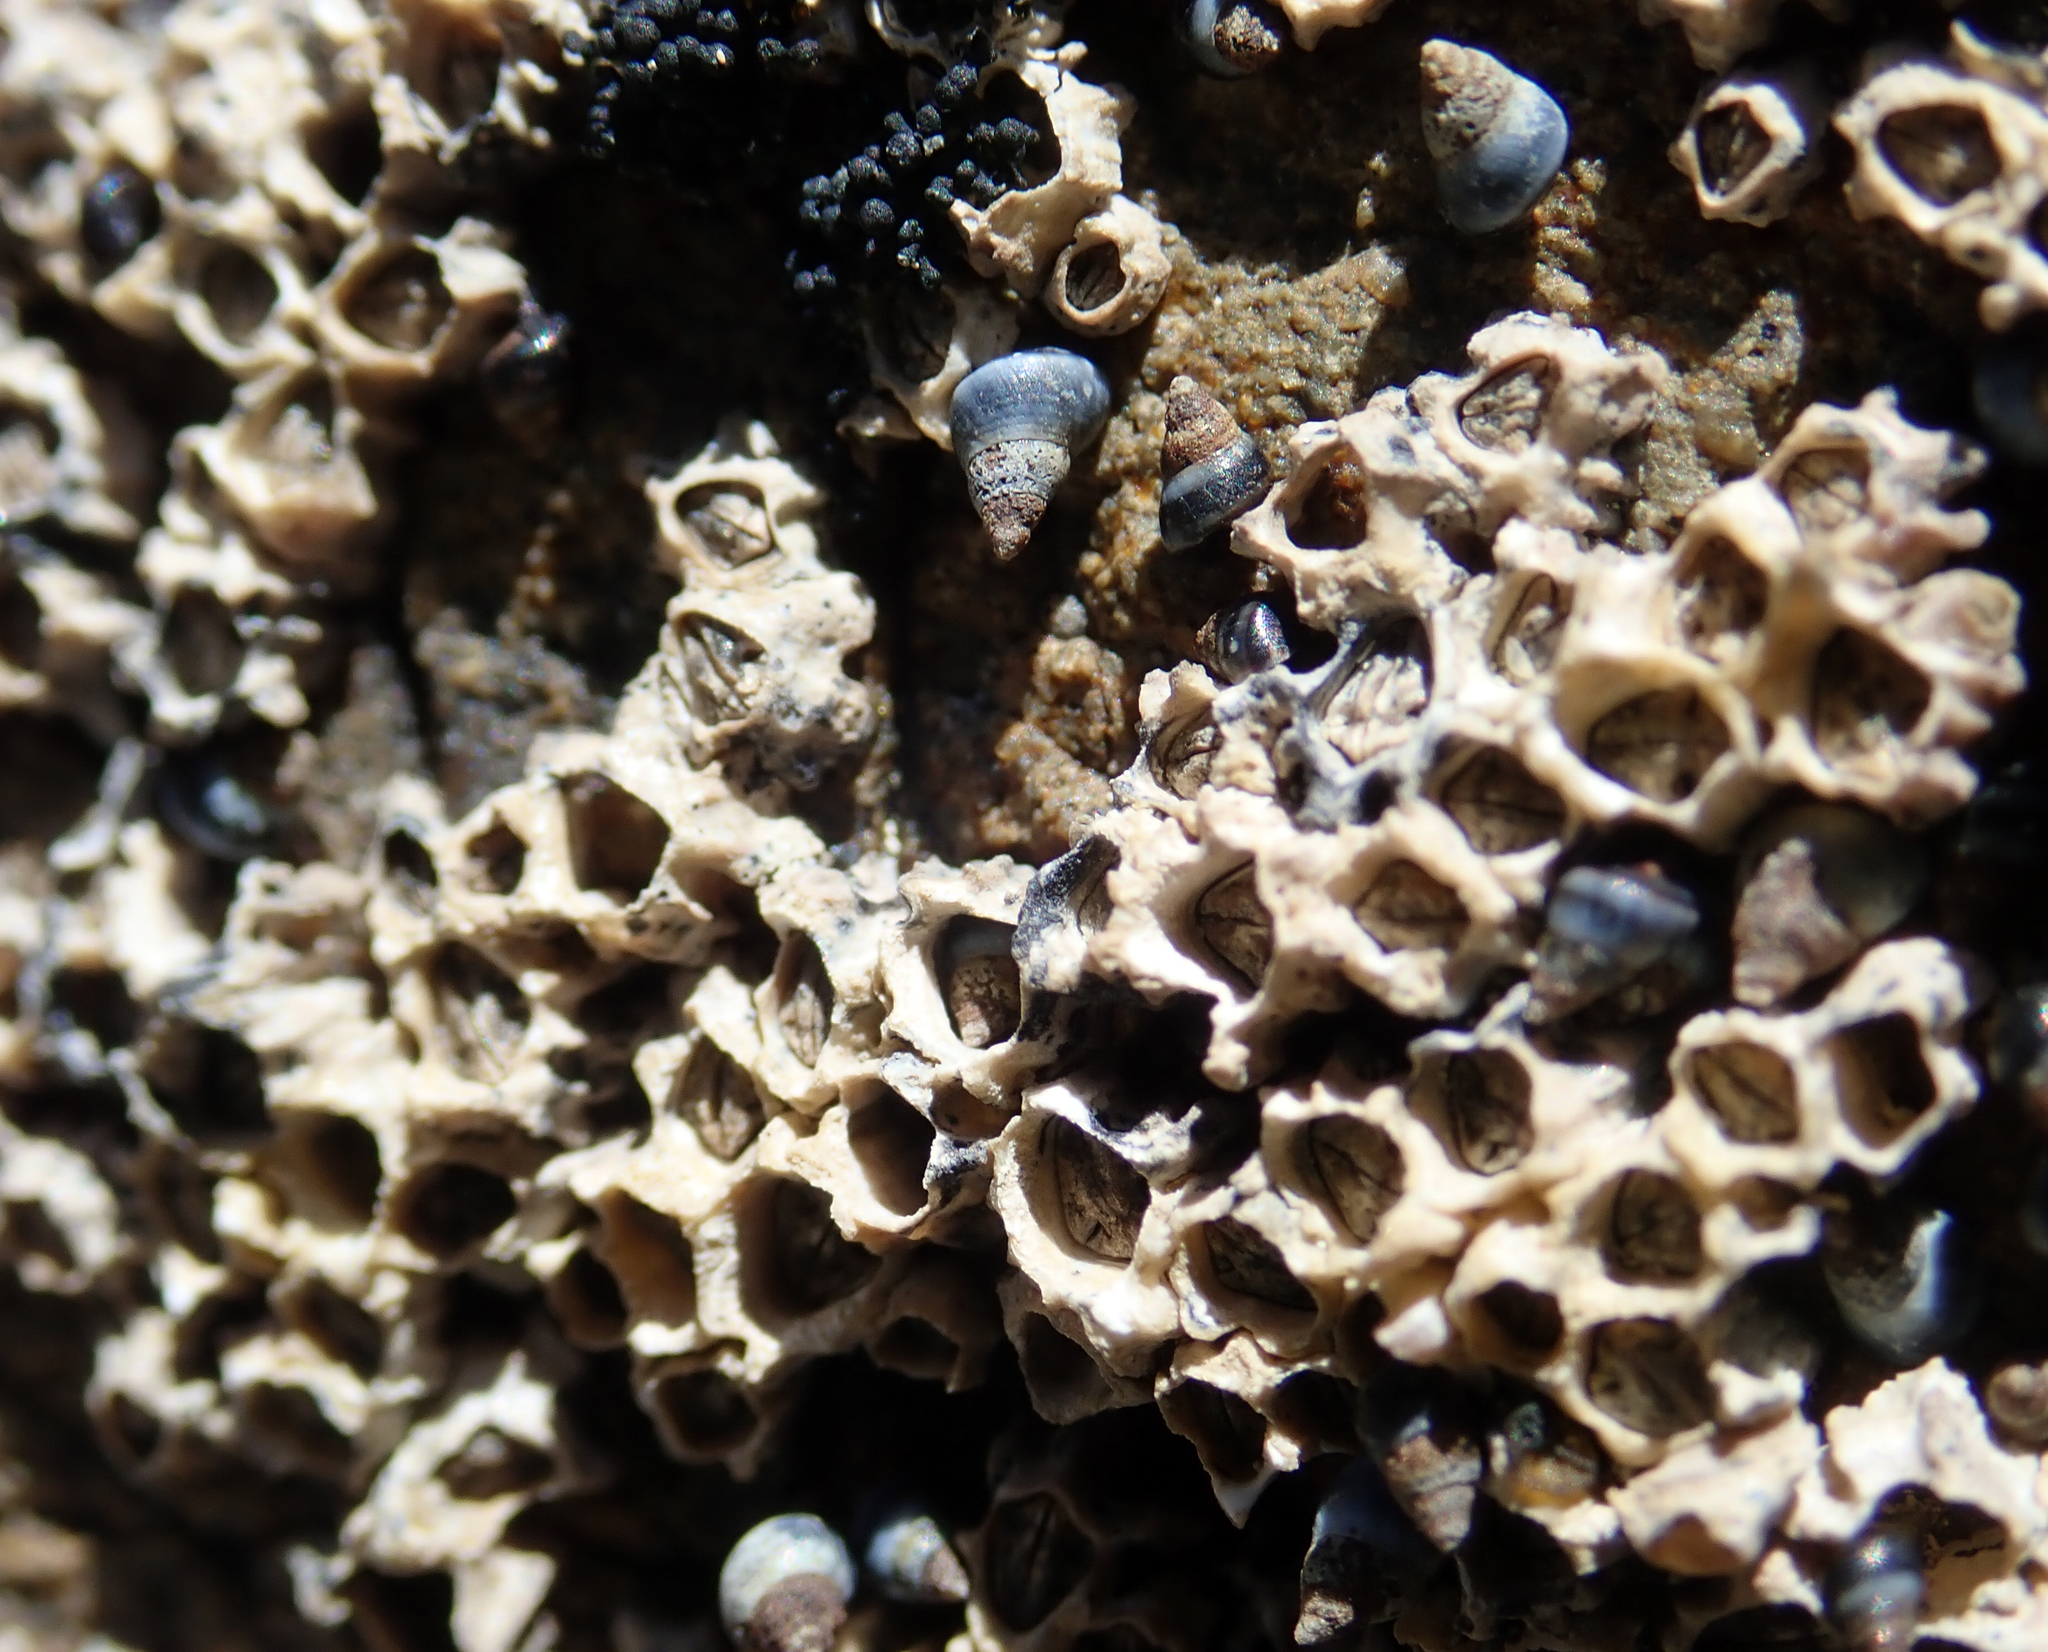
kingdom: Animalia
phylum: Arthropoda
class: Maxillopoda
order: Sessilia
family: Chthamalidae
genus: Chamaesipho
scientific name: Chamaesipho columna
